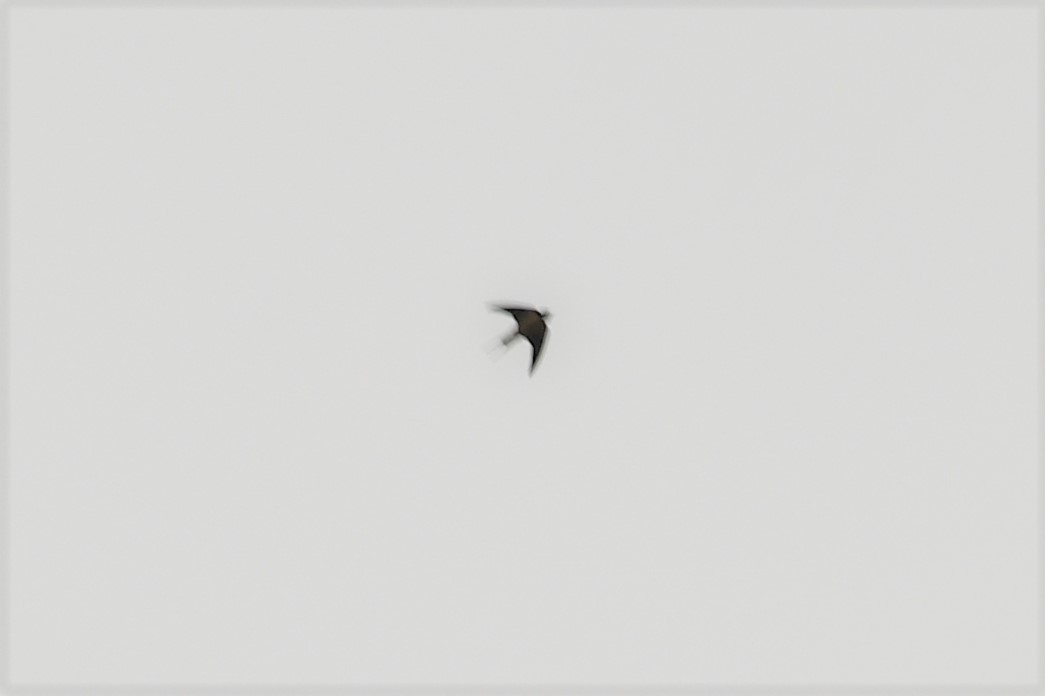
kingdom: Animalia
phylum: Chordata
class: Aves
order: Passeriformes
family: Hirundinidae
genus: Hirundo
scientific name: Hirundo rustica
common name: Barn swallow
